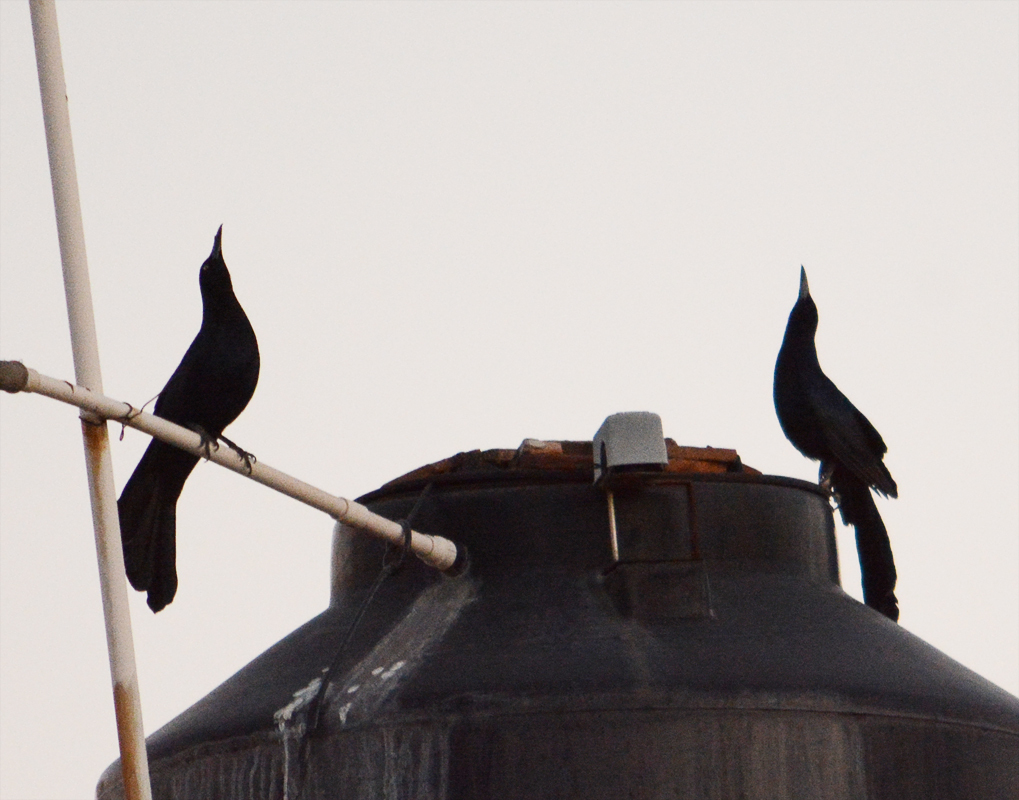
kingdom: Animalia
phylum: Chordata
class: Aves
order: Passeriformes
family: Icteridae
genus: Quiscalus
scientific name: Quiscalus mexicanus
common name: Great-tailed grackle
